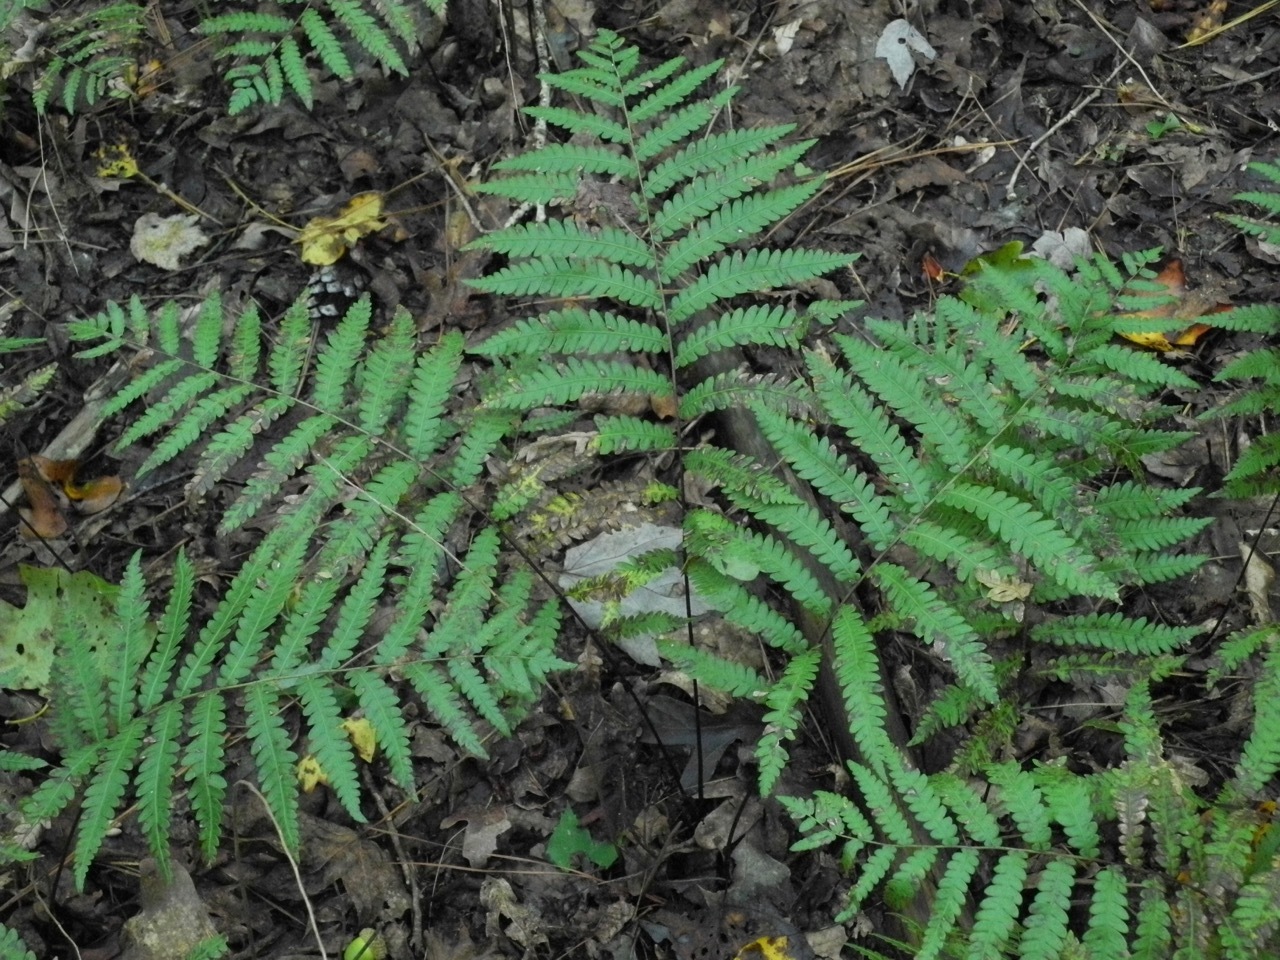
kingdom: Plantae
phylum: Tracheophyta
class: Polypodiopsida
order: Polypodiales
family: Blechnaceae
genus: Anchistea
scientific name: Anchistea virginica
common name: Virginia chain fern
